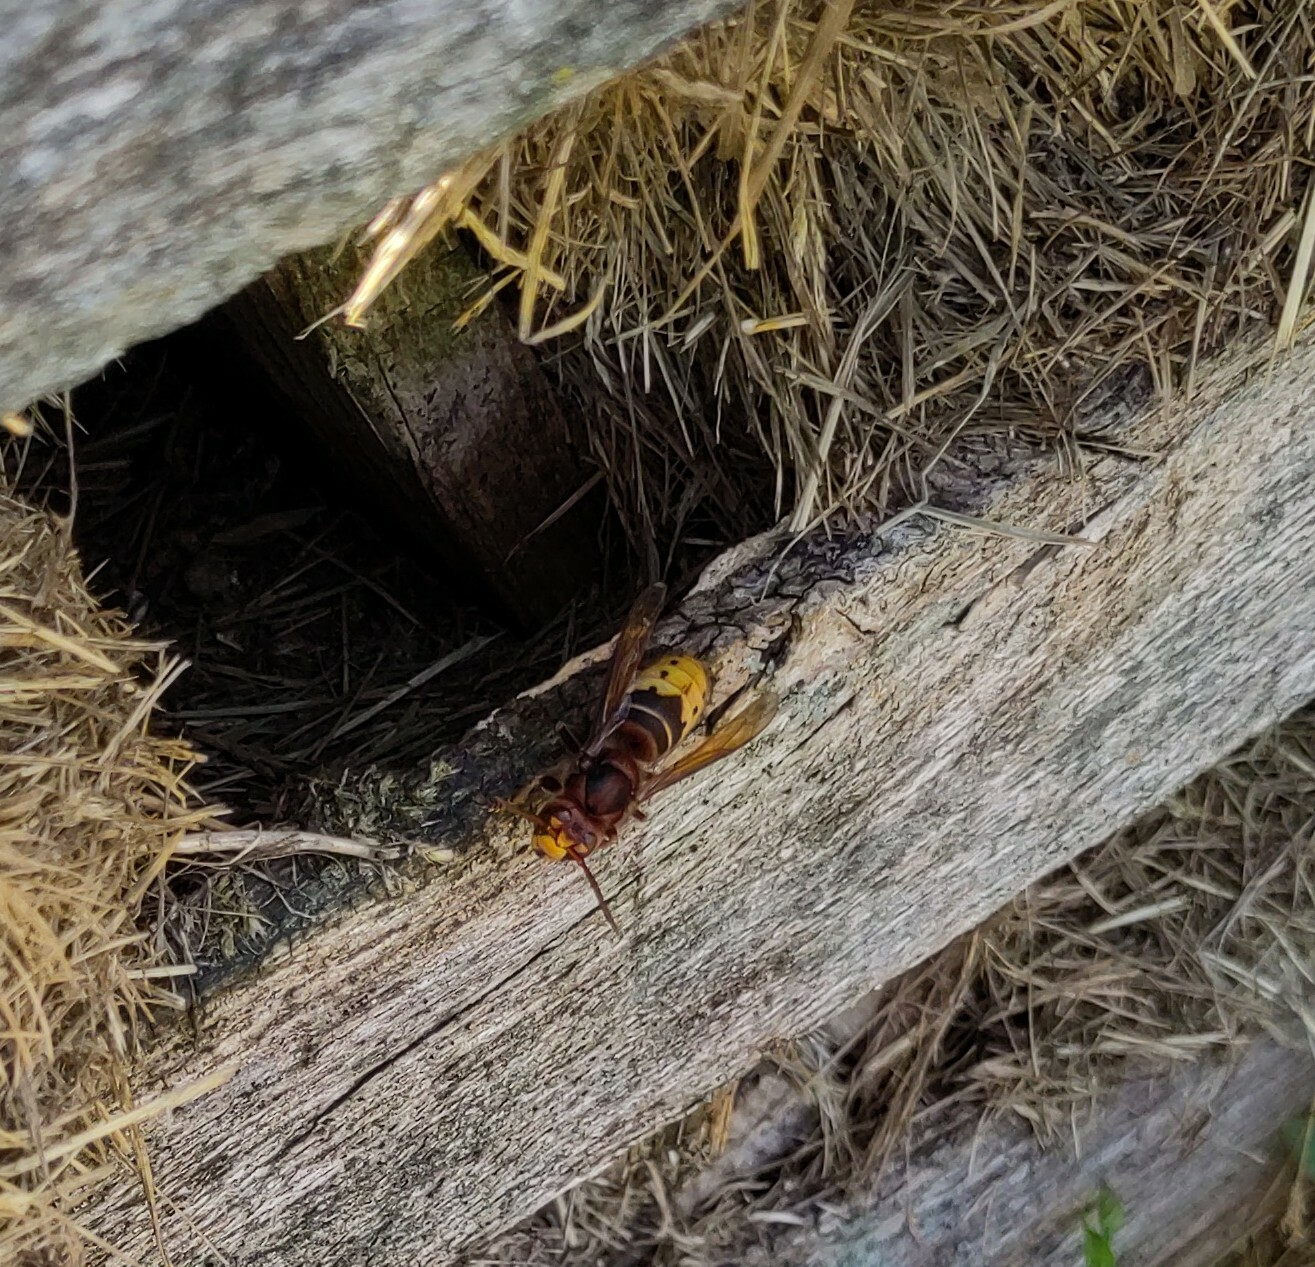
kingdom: Animalia
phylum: Arthropoda
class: Insecta
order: Hymenoptera
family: Vespidae
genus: Vespa
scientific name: Vespa crabro
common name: Hornet
